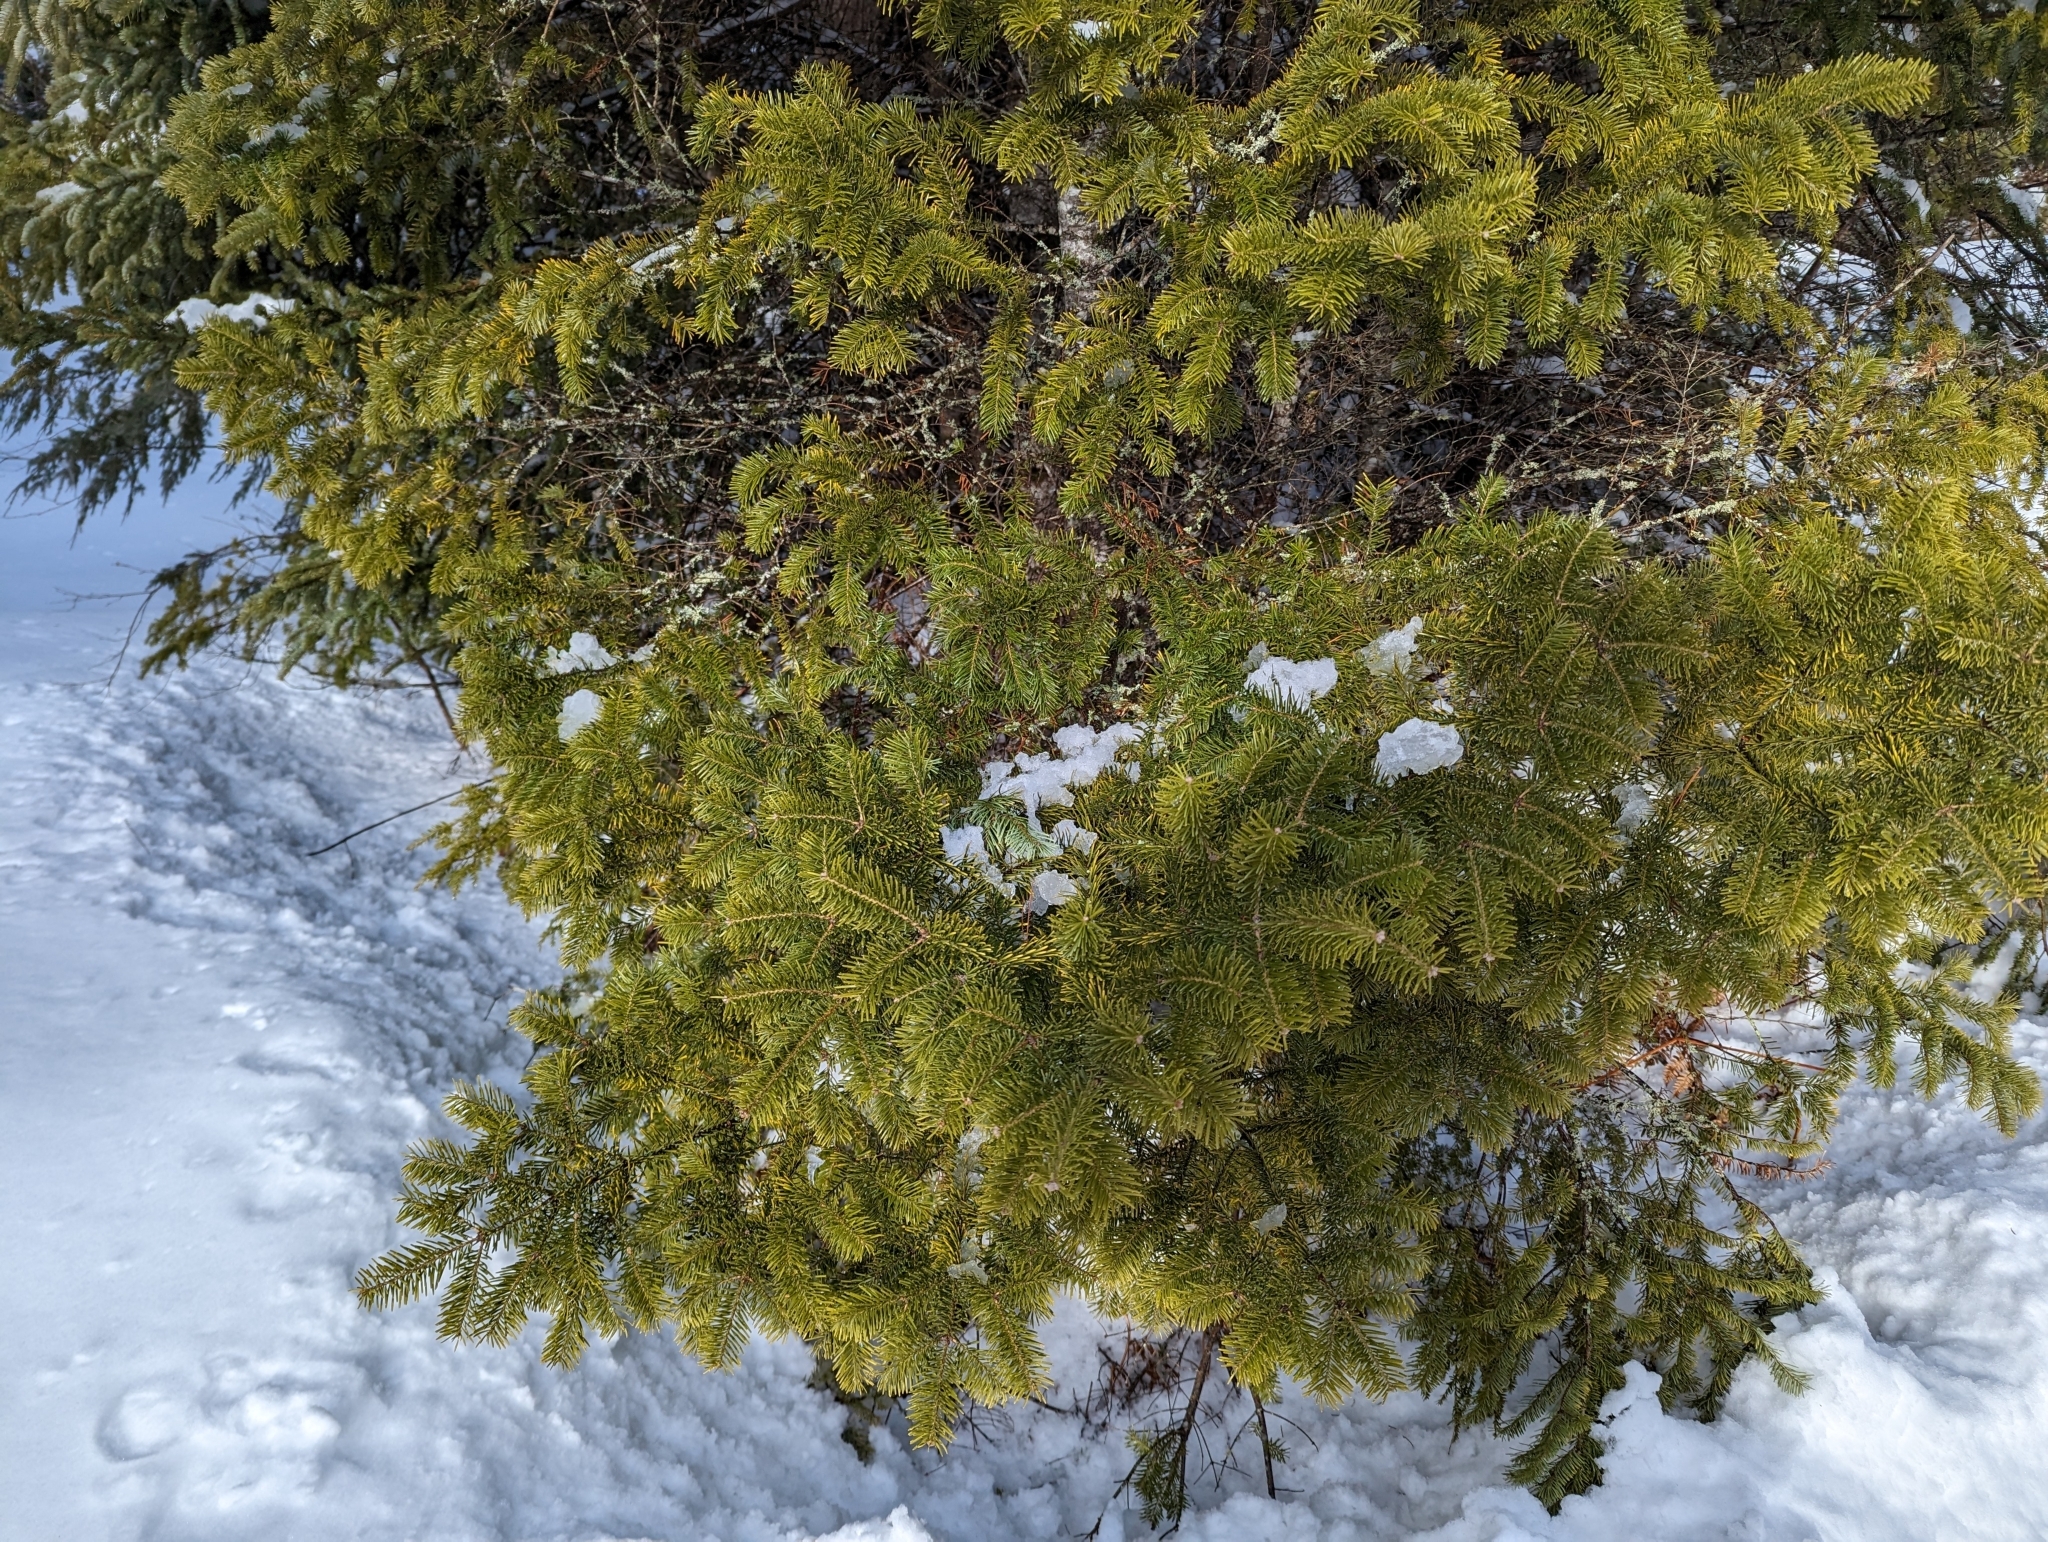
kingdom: Plantae
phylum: Tracheophyta
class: Pinopsida
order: Pinales
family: Pinaceae
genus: Abies
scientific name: Abies balsamea
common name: Balsam fir
